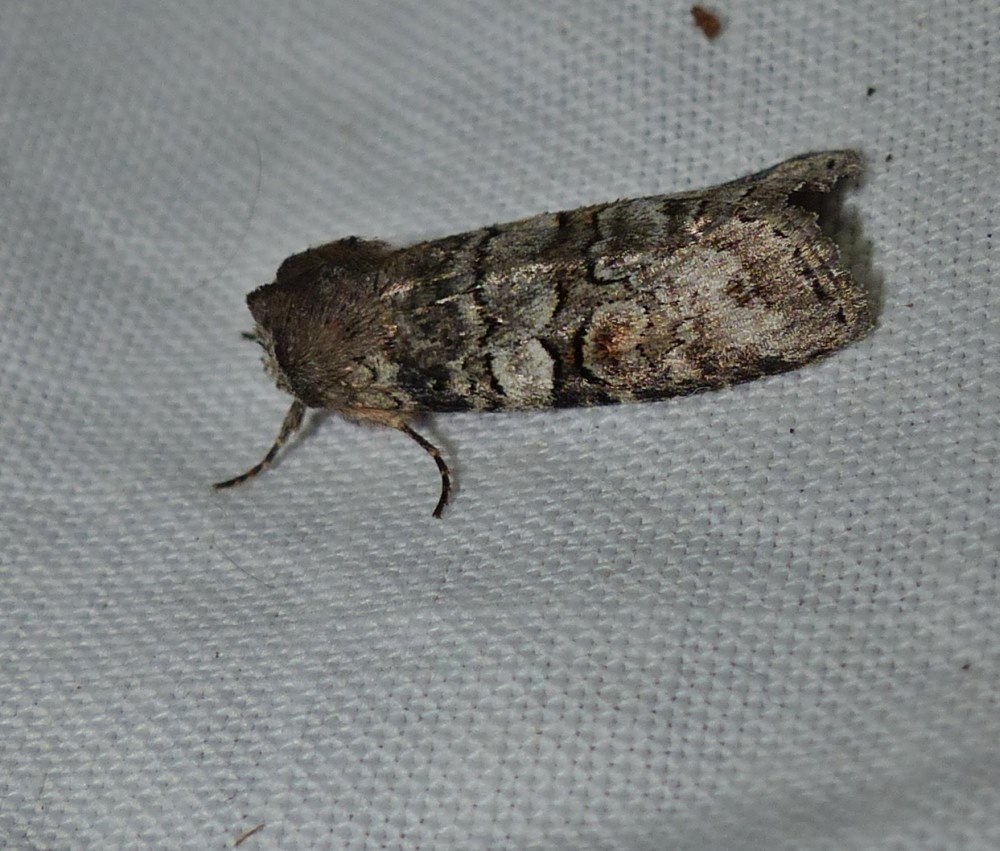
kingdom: Animalia
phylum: Arthropoda
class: Insecta
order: Lepidoptera
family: Noctuidae
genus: Egira
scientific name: Egira alternans
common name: Alternate woodling
